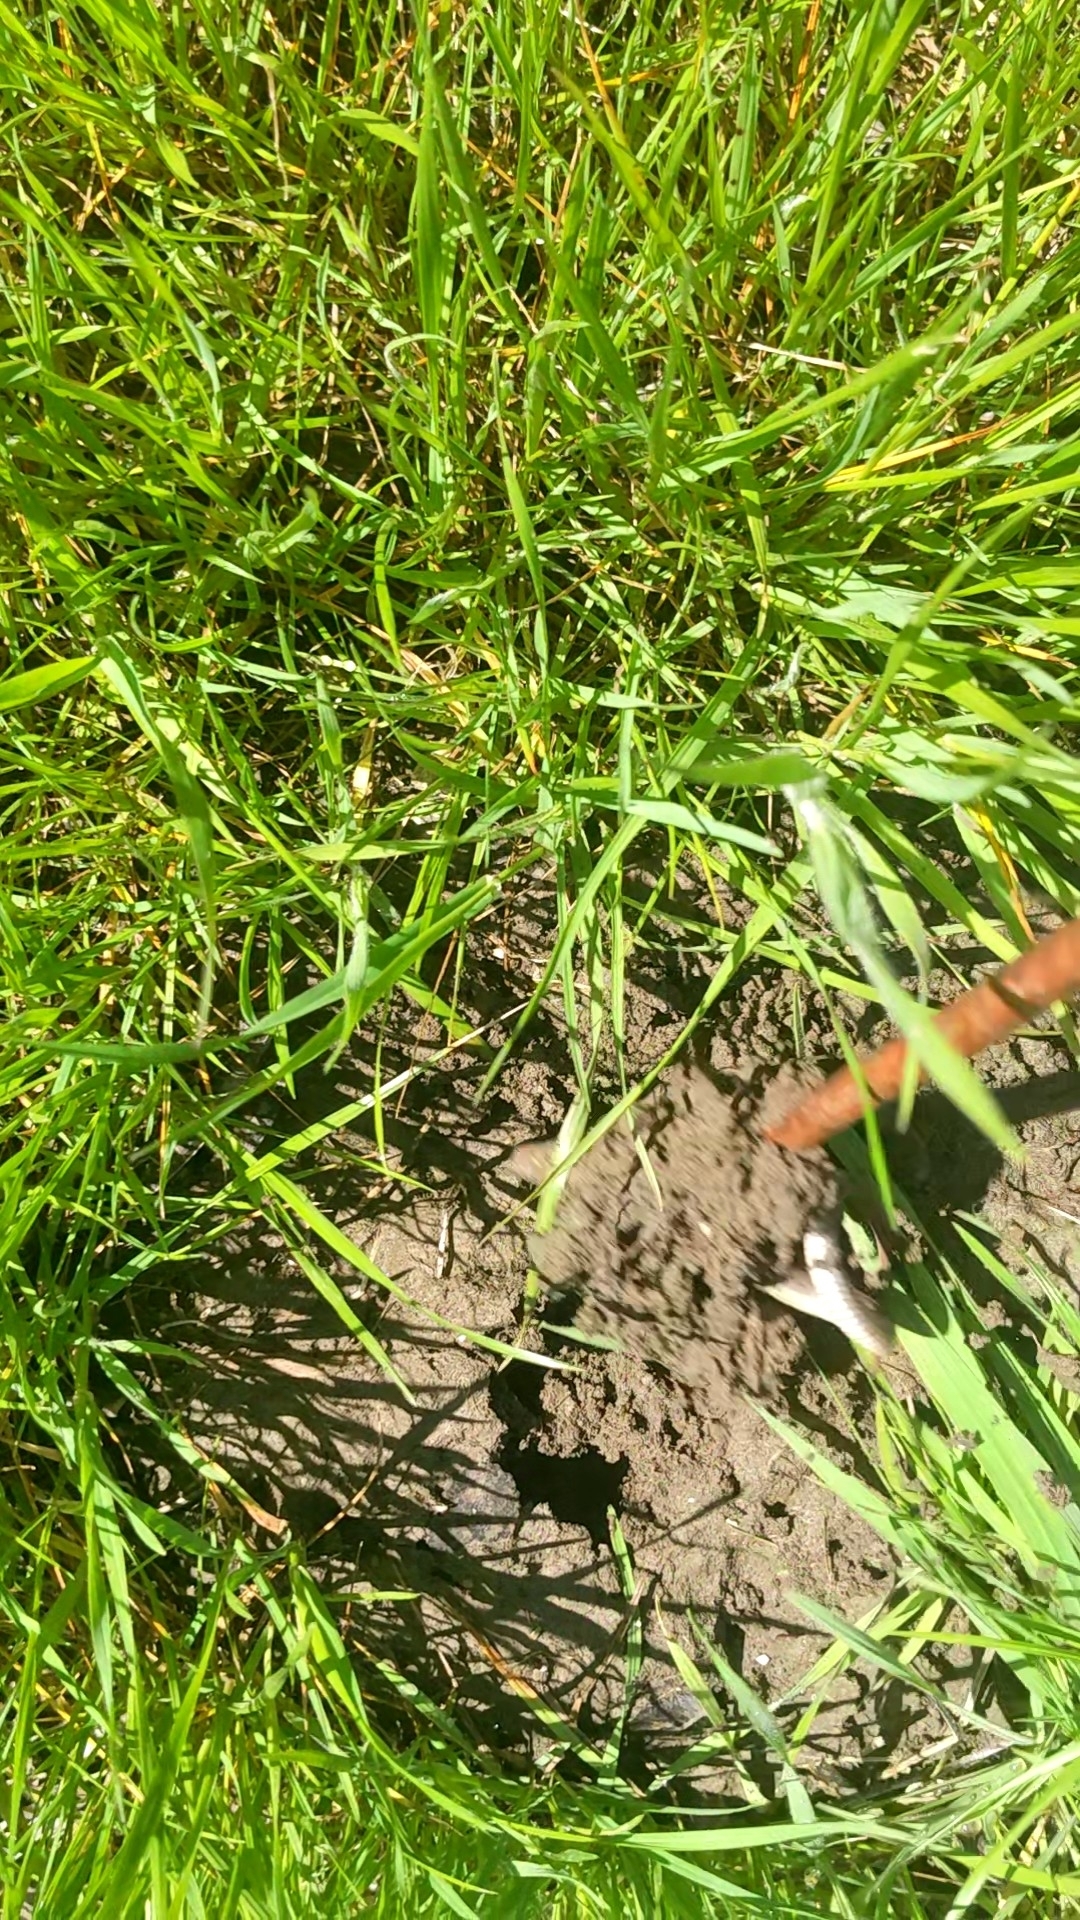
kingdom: Animalia
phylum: Chordata
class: Squamata
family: Colubridae
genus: Haldea
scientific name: Haldea striatula
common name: Rough earth snake
